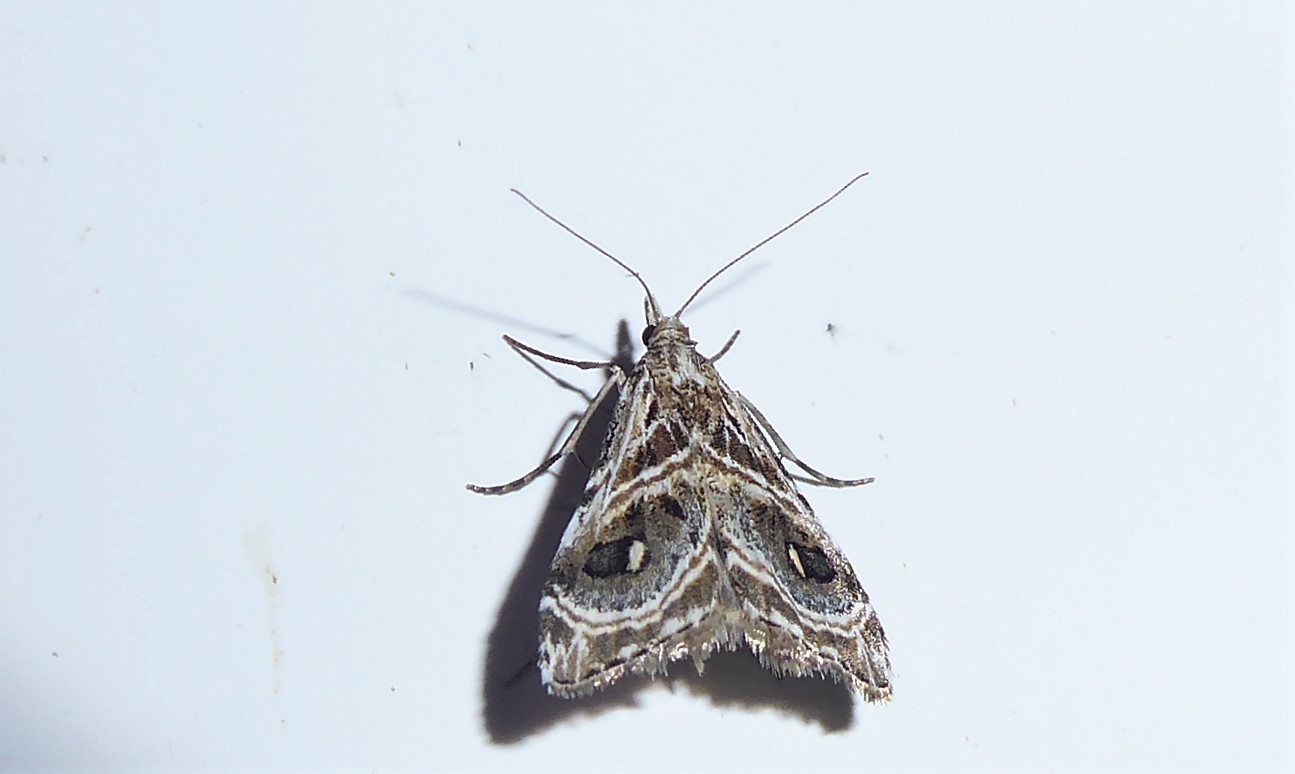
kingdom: Animalia
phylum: Arthropoda
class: Insecta
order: Lepidoptera
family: Crambidae
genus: Gadira
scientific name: Gadira acerella
